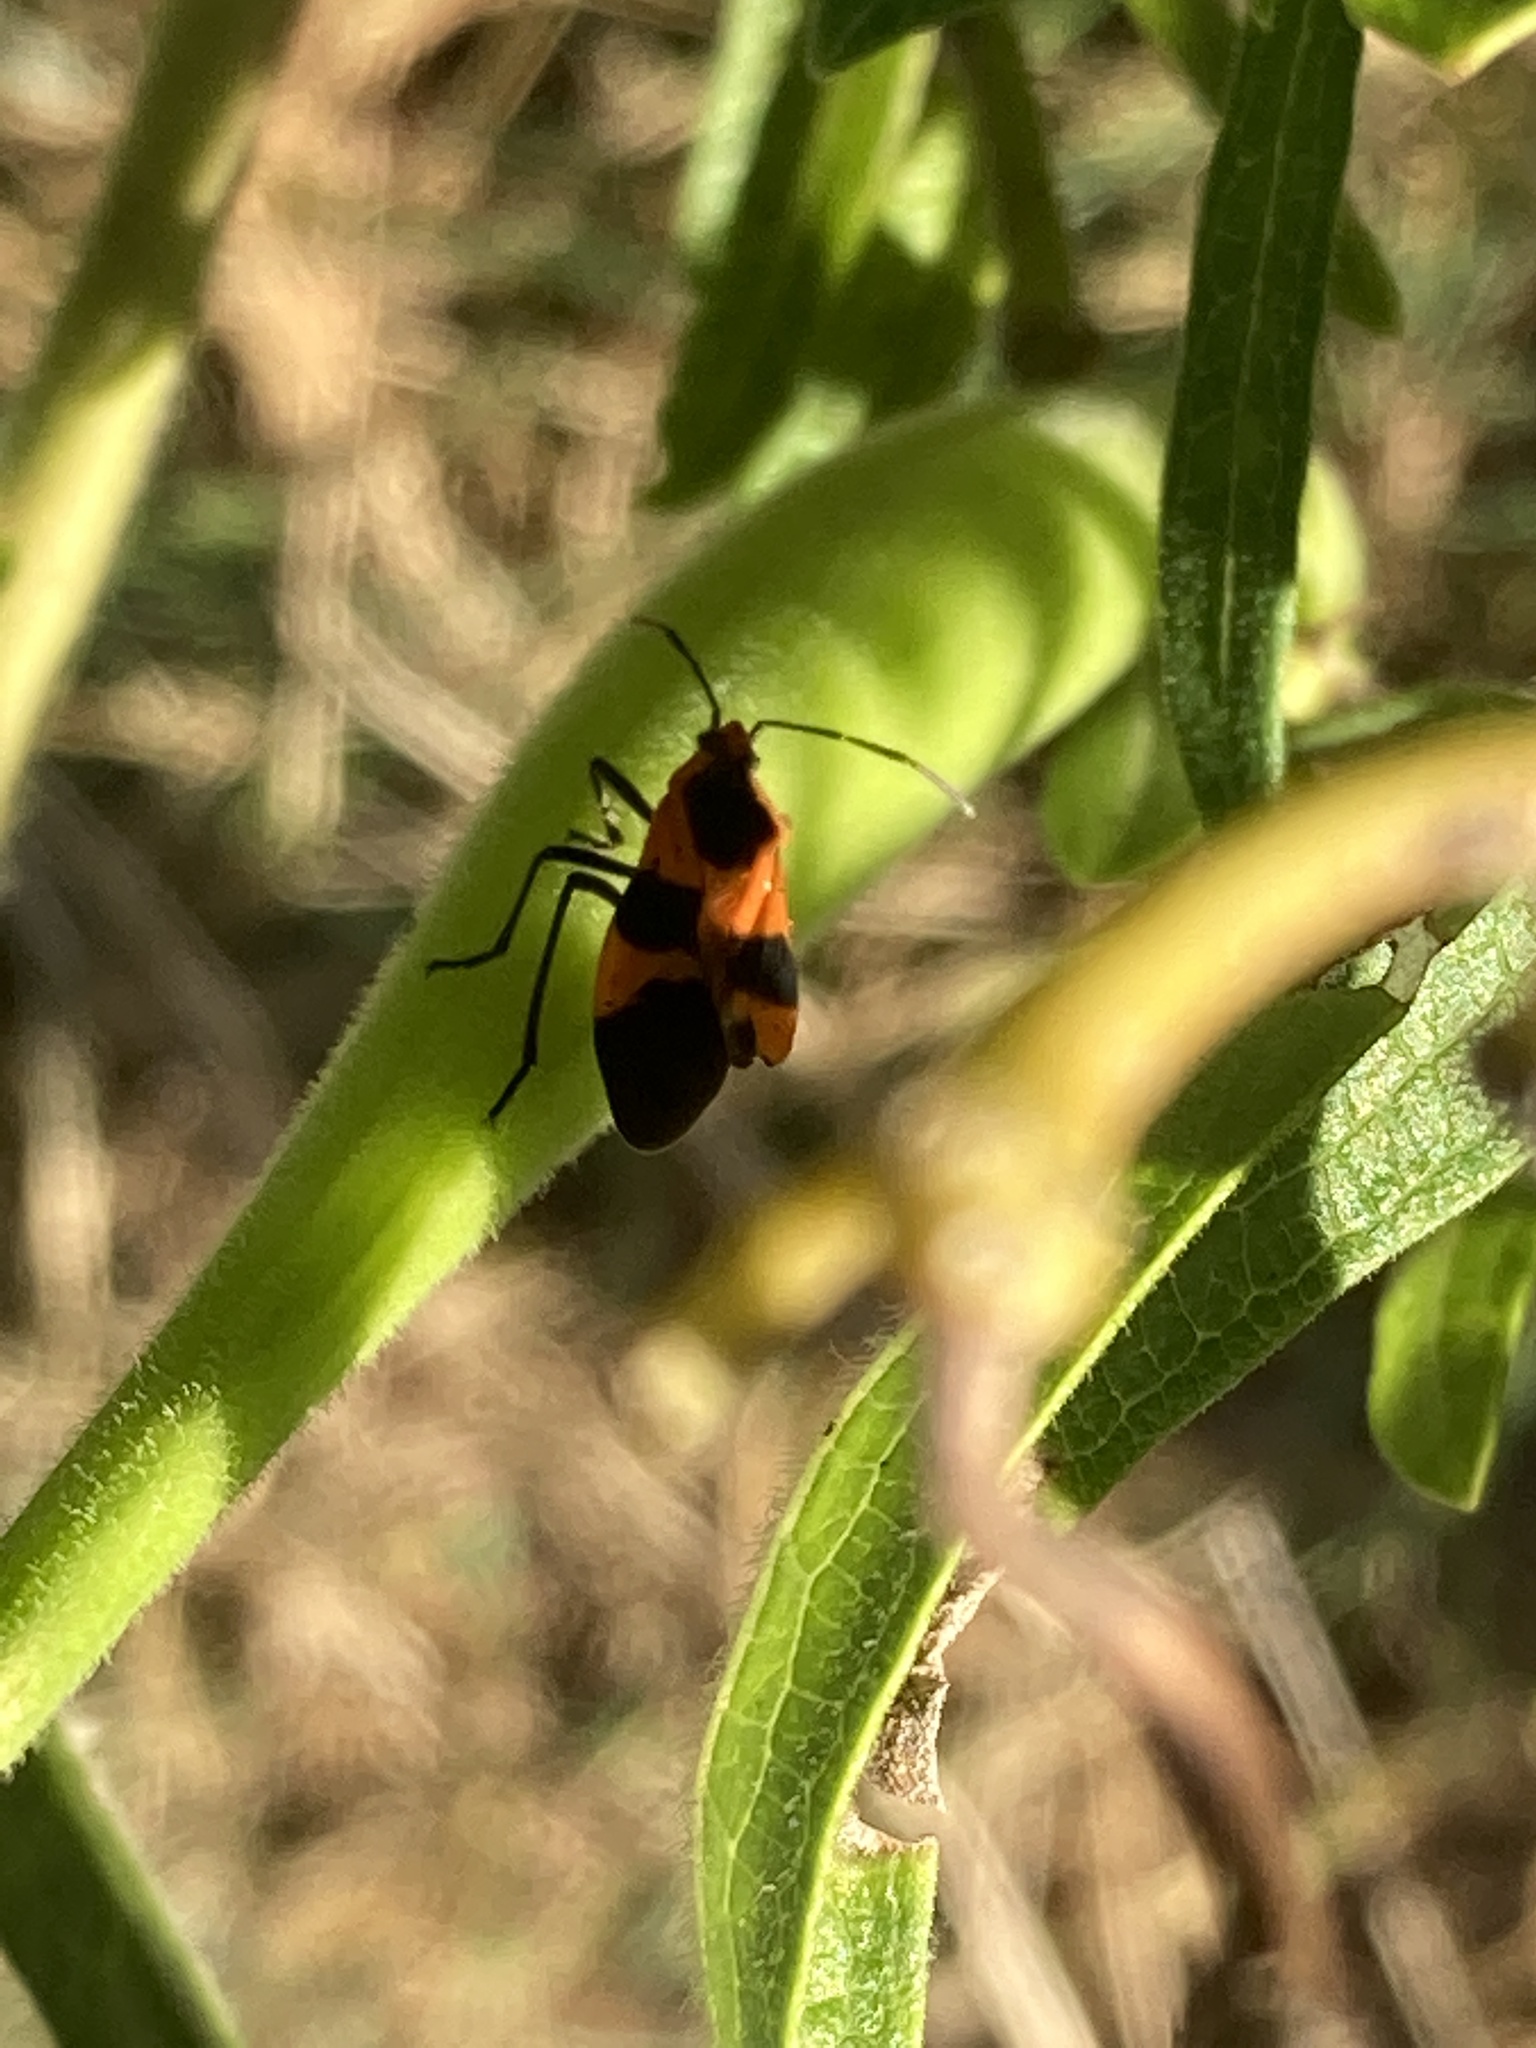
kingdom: Animalia
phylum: Arthropoda
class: Insecta
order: Hemiptera
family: Lygaeidae
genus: Oncopeltus
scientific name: Oncopeltus fasciatus
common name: Large milkweed bug
